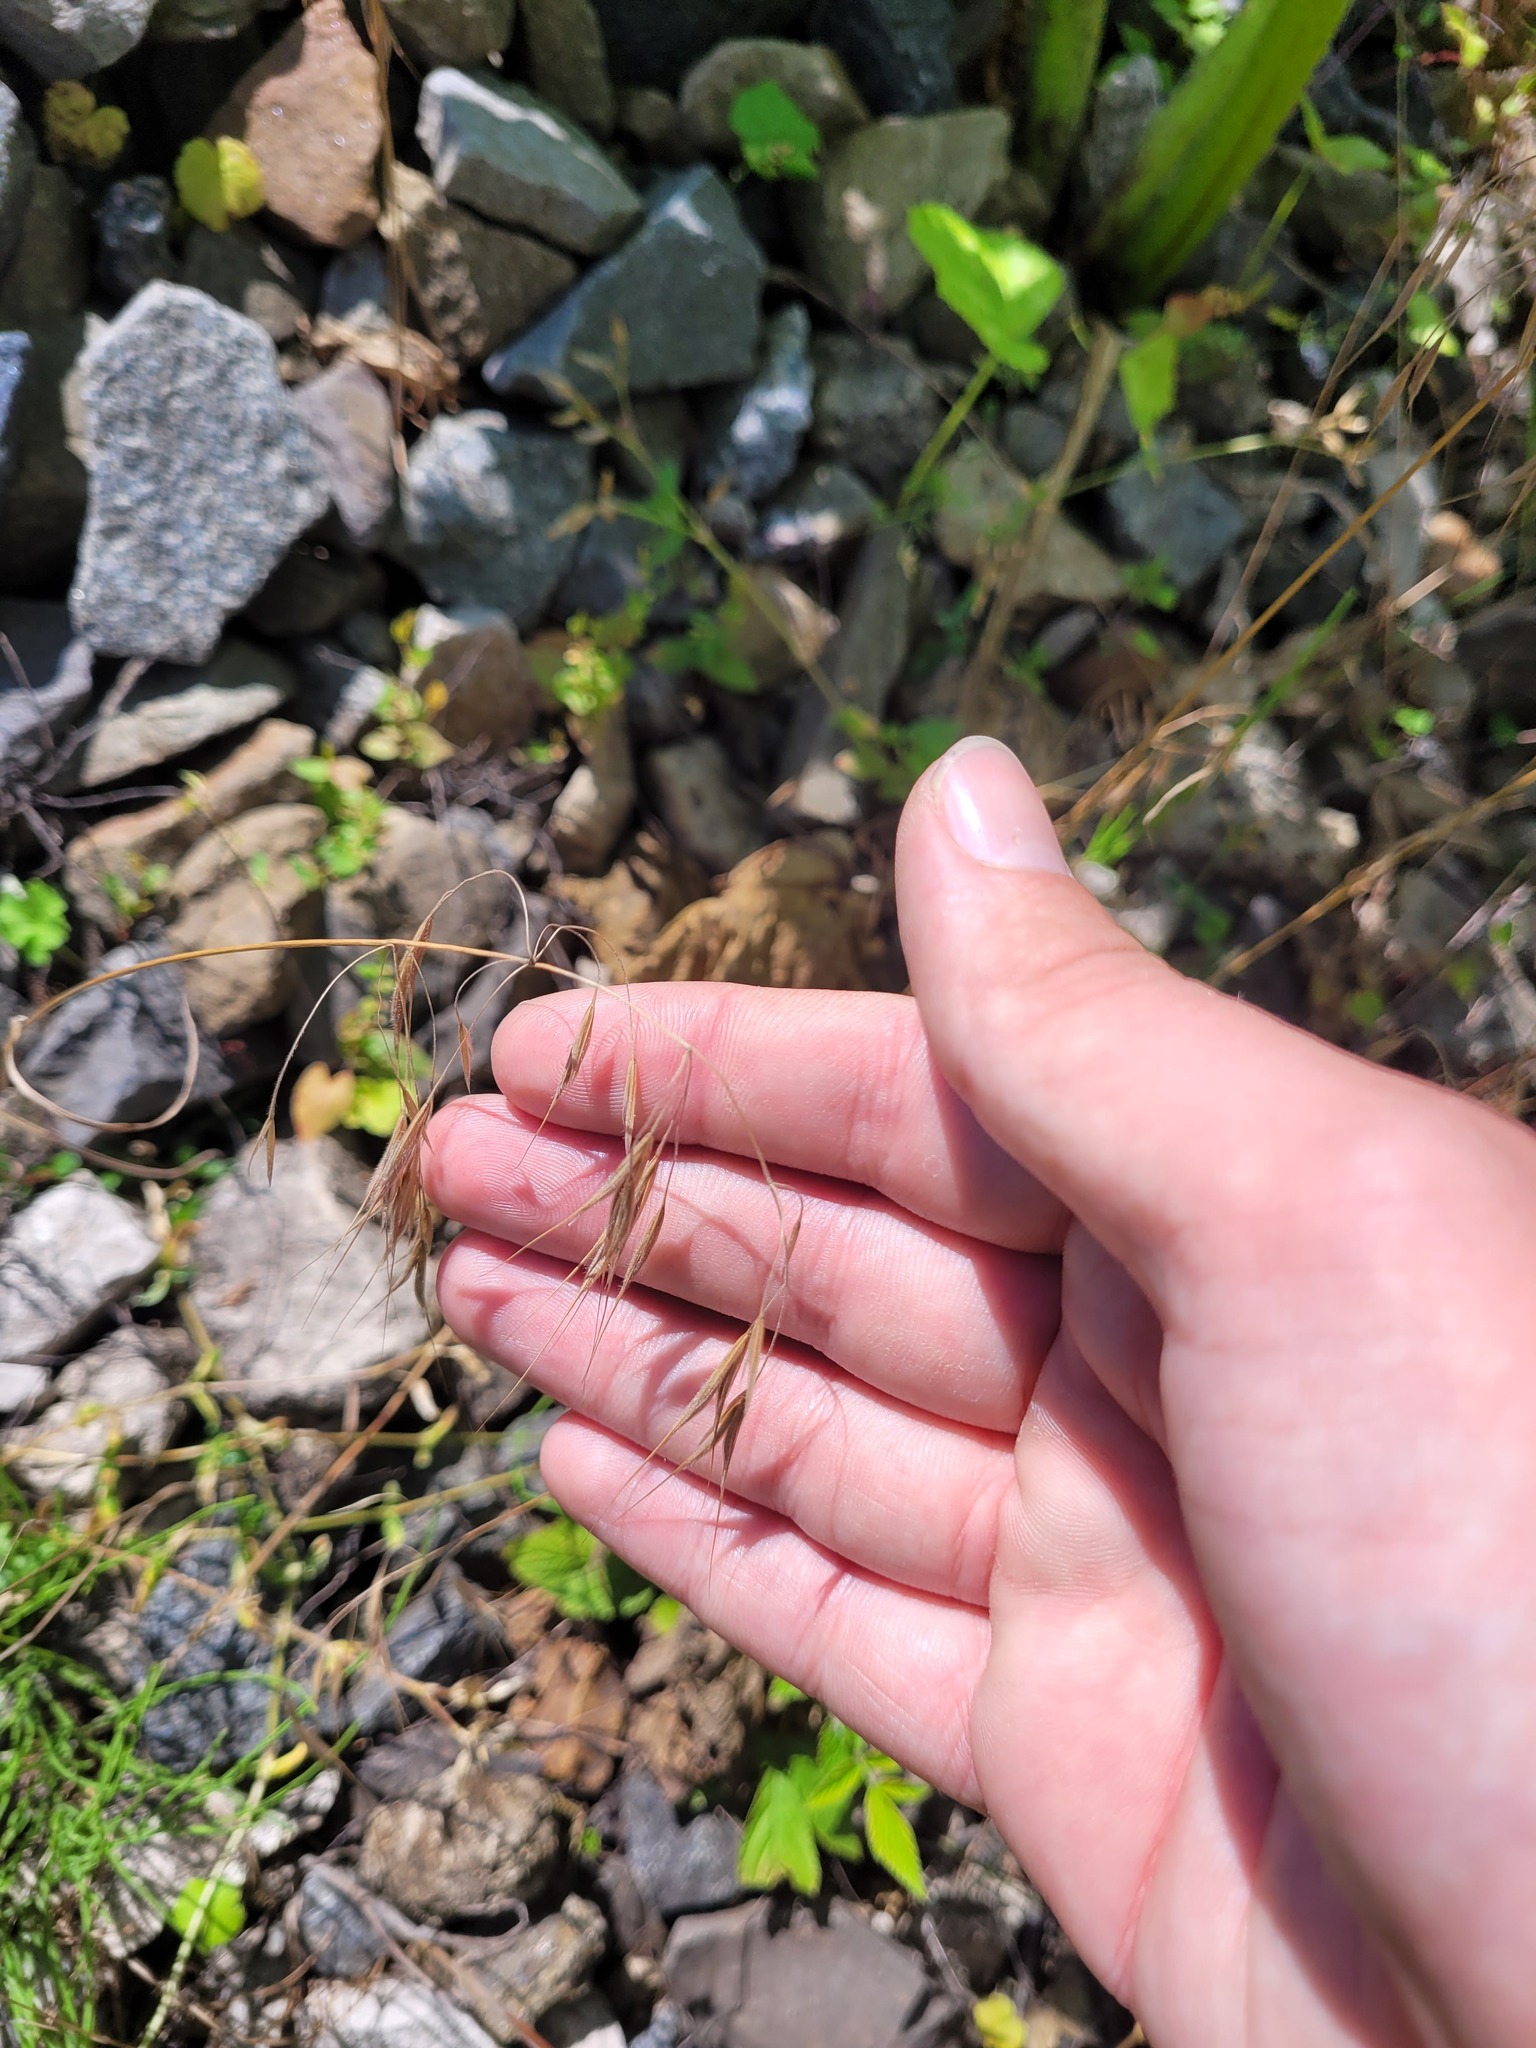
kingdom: Plantae
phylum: Tracheophyta
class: Liliopsida
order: Poales
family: Poaceae
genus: Bromus
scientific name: Bromus tectorum
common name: Cheatgrass
